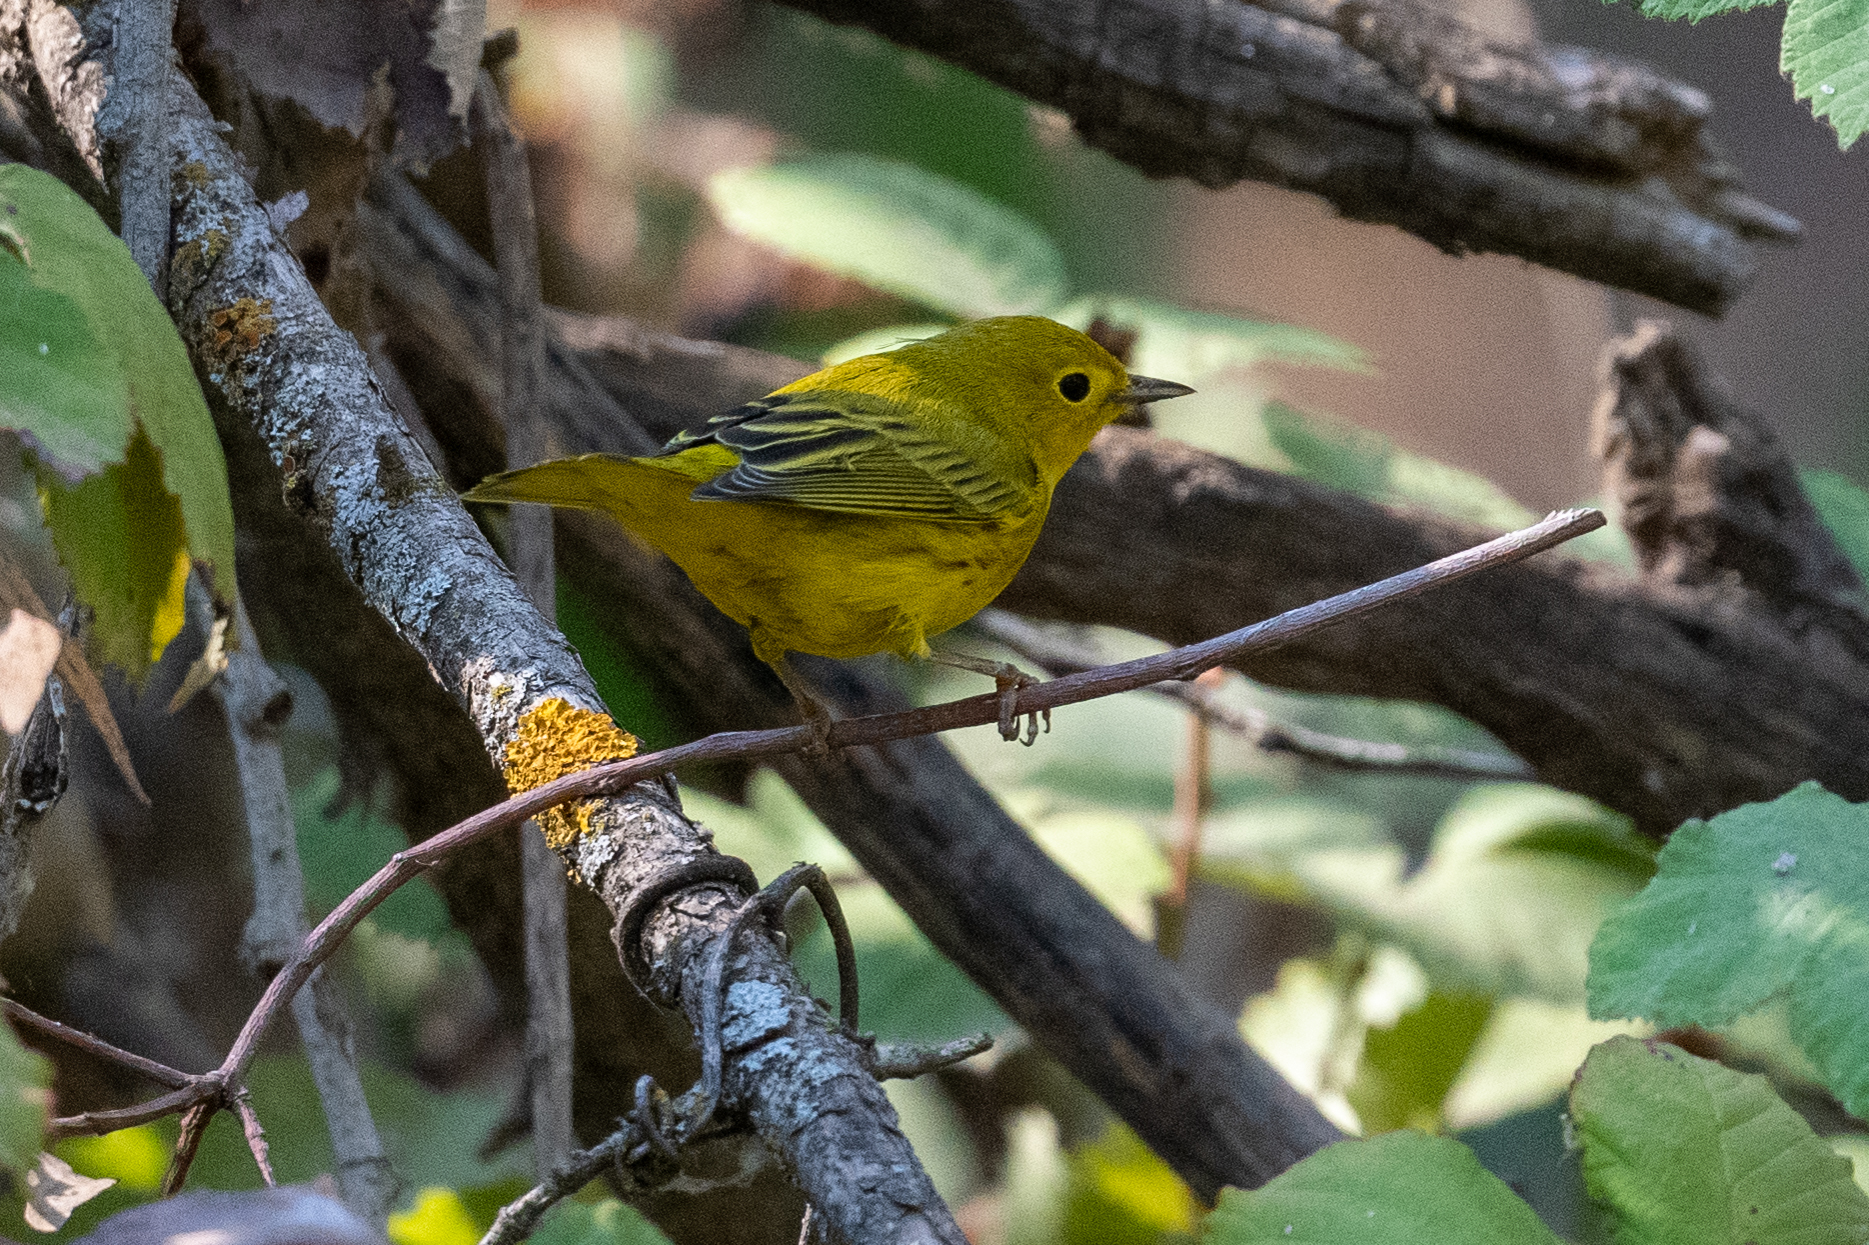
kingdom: Animalia
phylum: Chordata
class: Aves
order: Passeriformes
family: Parulidae
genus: Setophaga
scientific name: Setophaga petechia
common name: Yellow warbler
